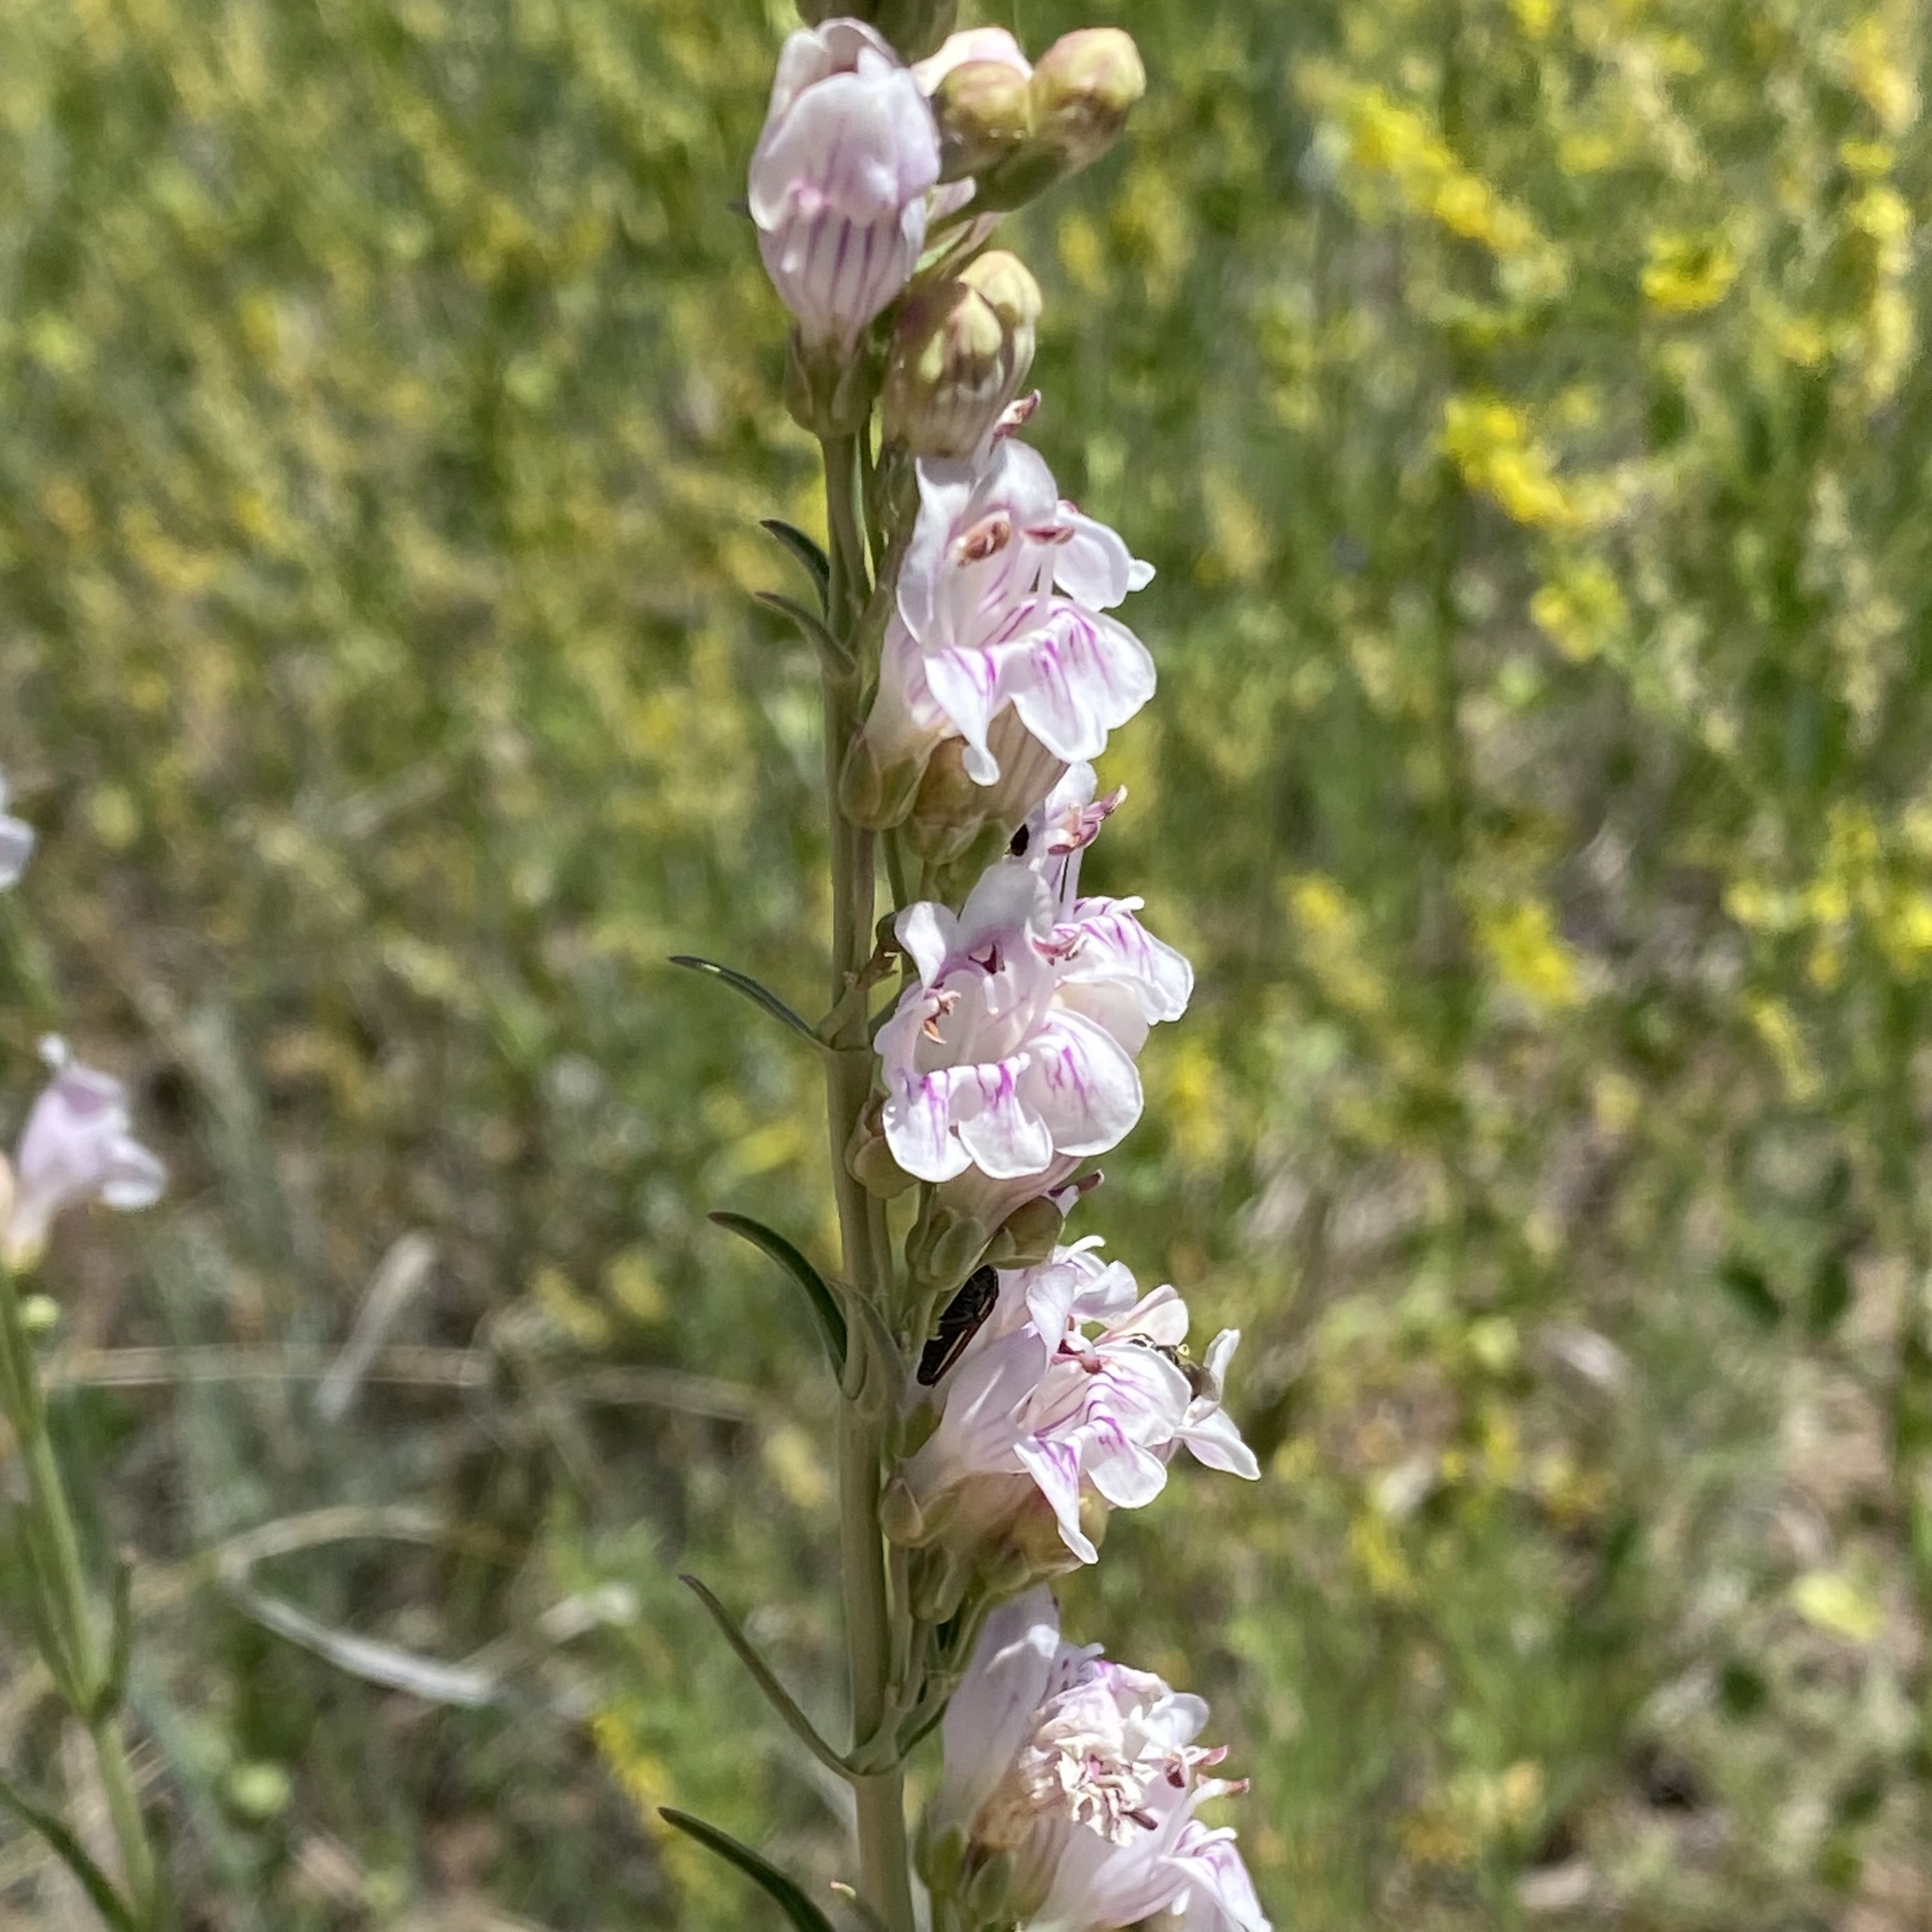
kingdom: Plantae
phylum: Tracheophyta
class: Magnoliopsida
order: Lamiales
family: Plantaginaceae
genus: Penstemon
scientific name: Penstemon virgatus
